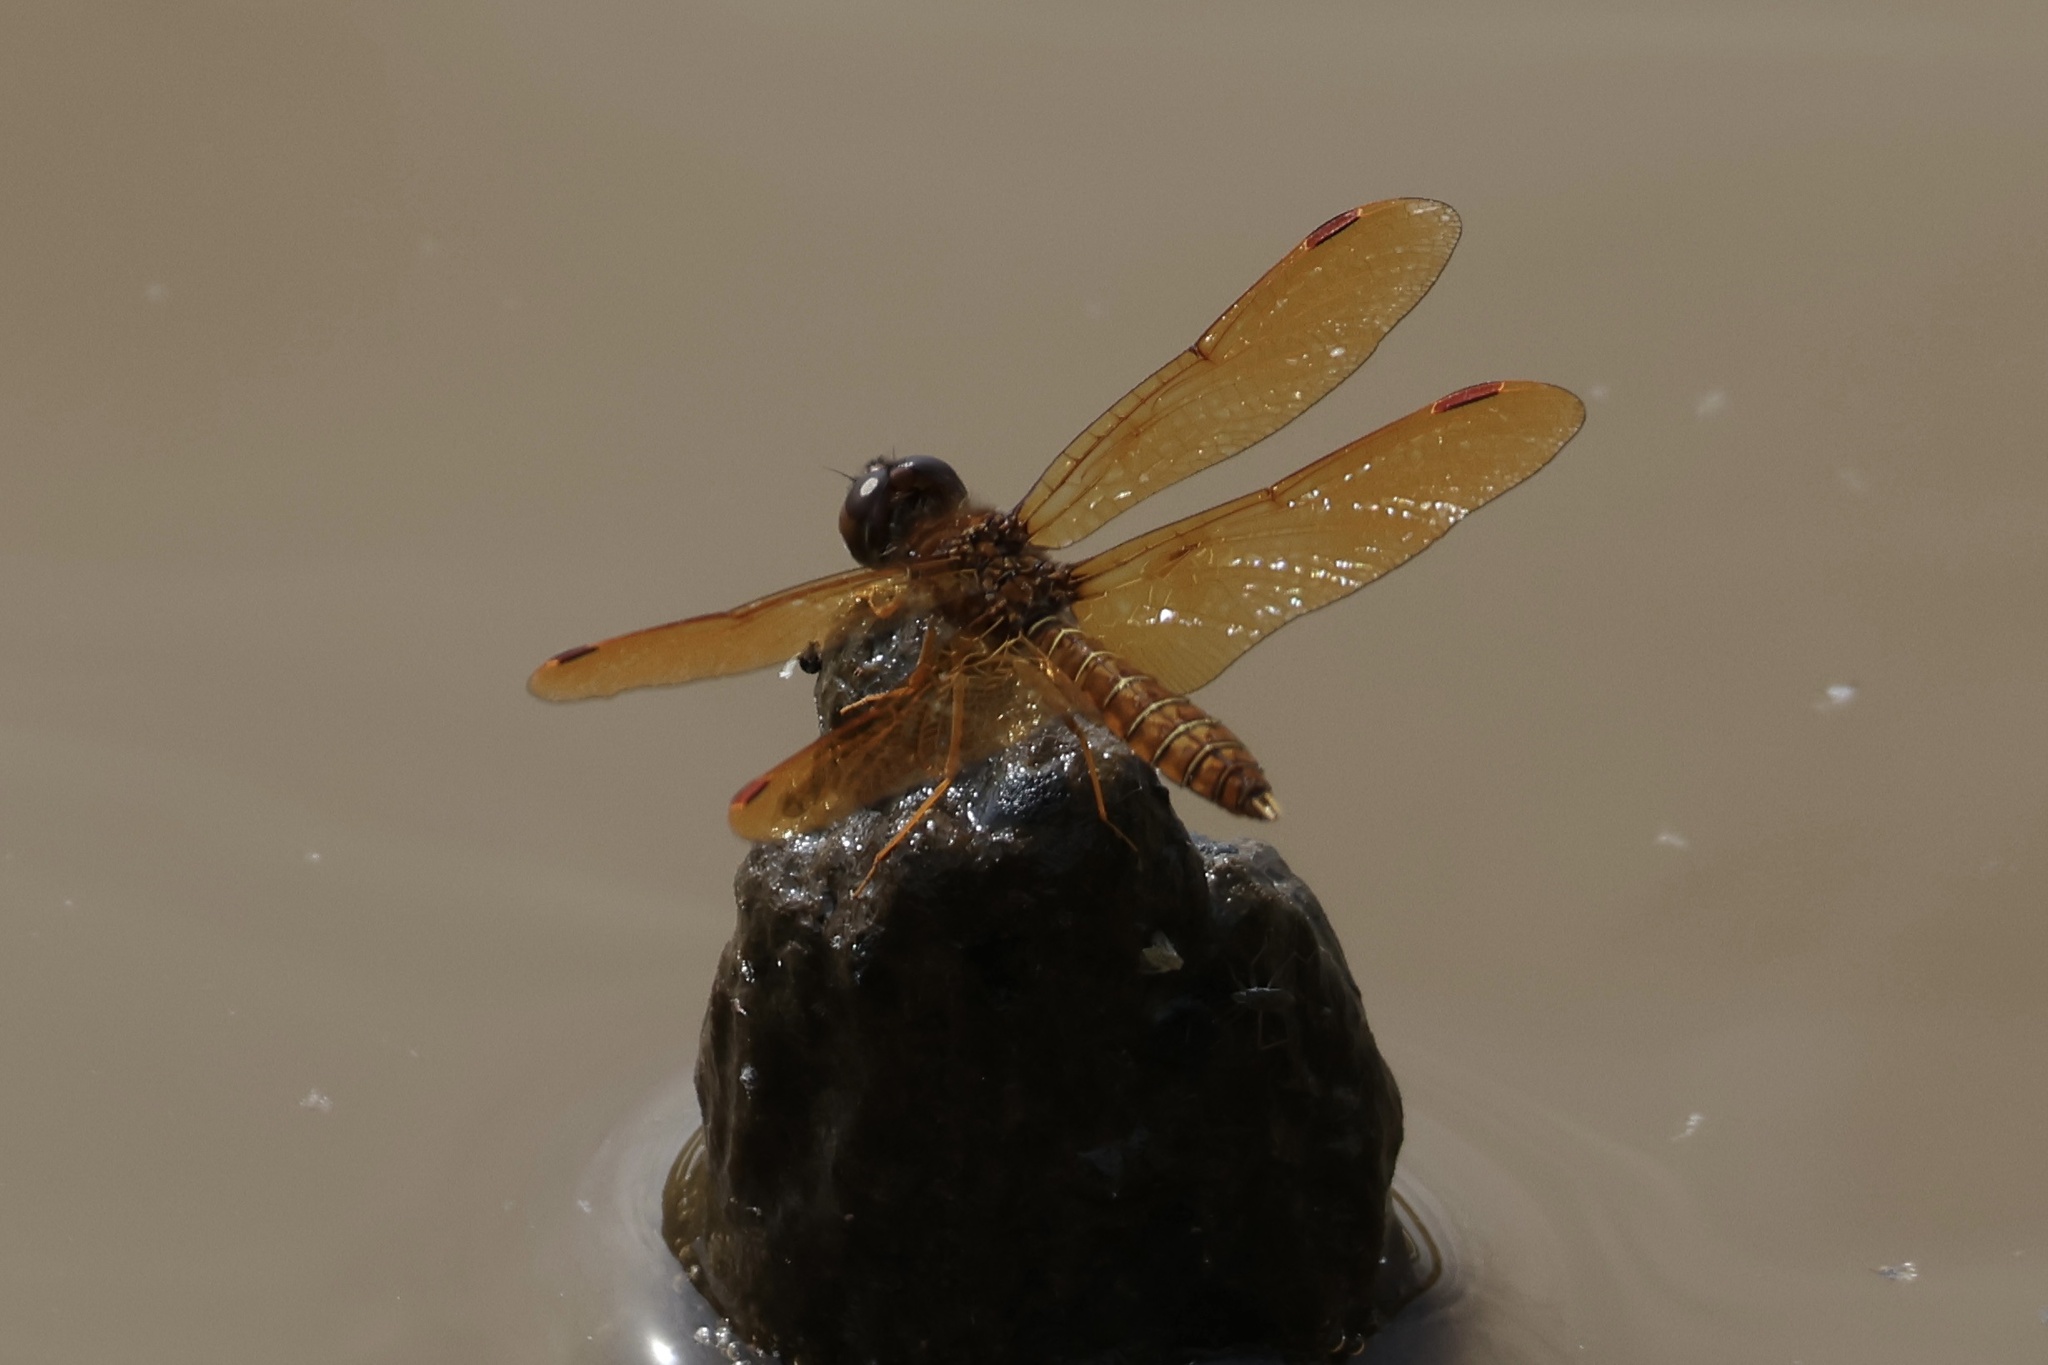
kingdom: Animalia
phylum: Arthropoda
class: Insecta
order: Odonata
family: Libellulidae
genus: Perithemis
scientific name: Perithemis tenera
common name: Eastern amberwing
